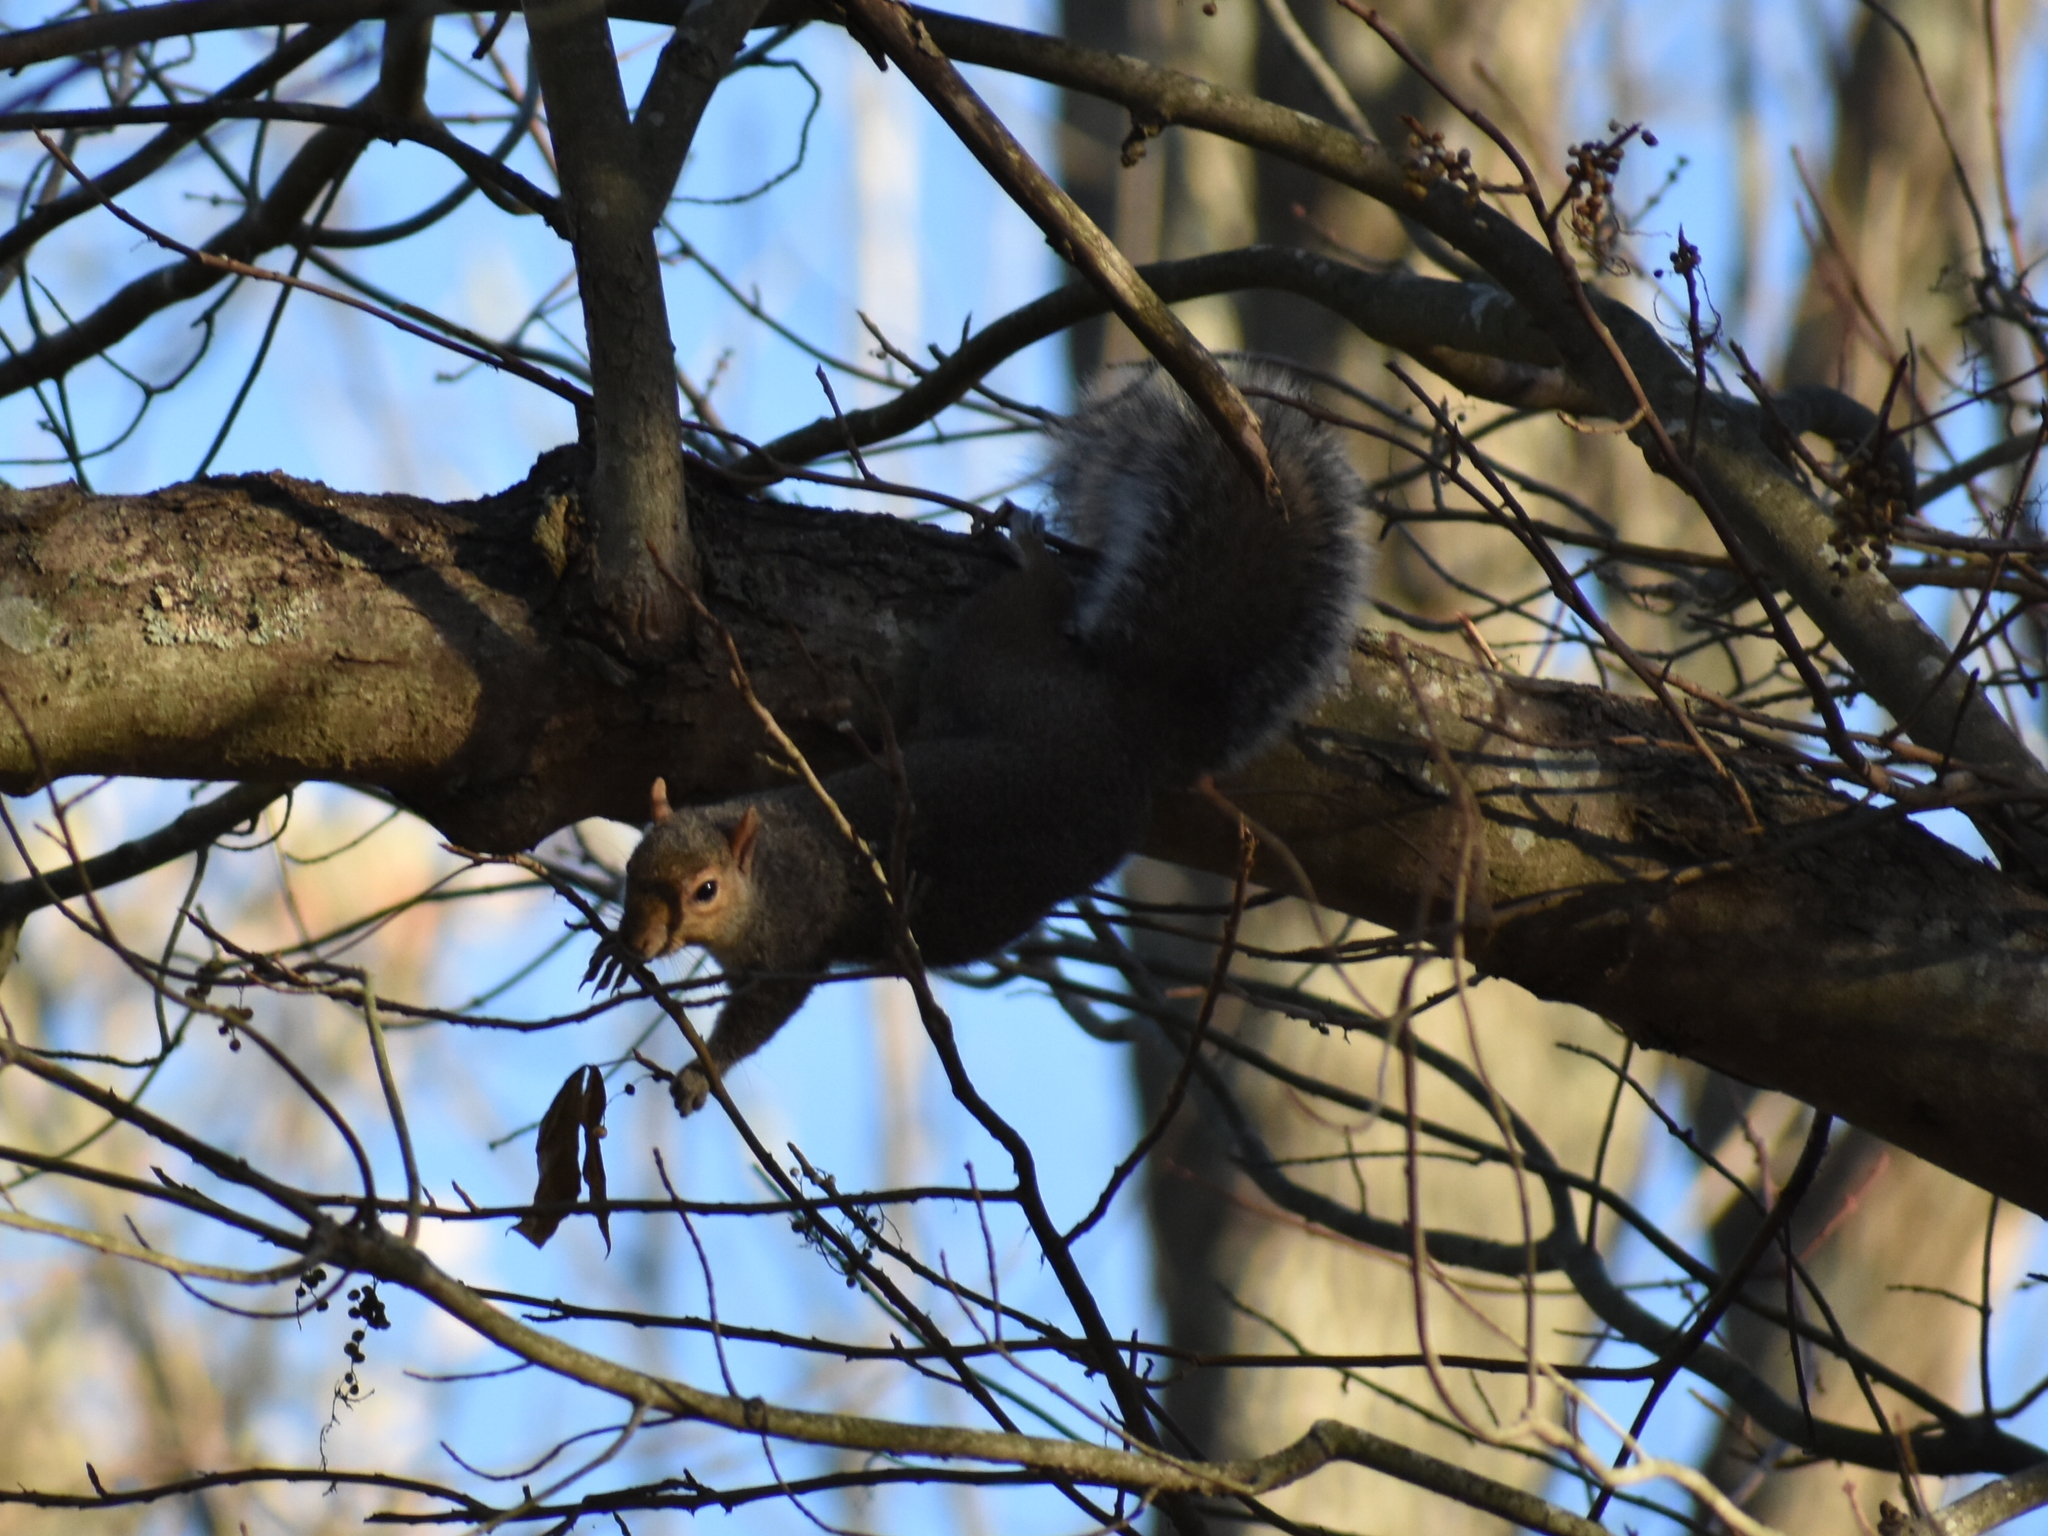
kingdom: Animalia
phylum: Chordata
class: Mammalia
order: Rodentia
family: Sciuridae
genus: Sciurus
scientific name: Sciurus carolinensis
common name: Eastern gray squirrel
